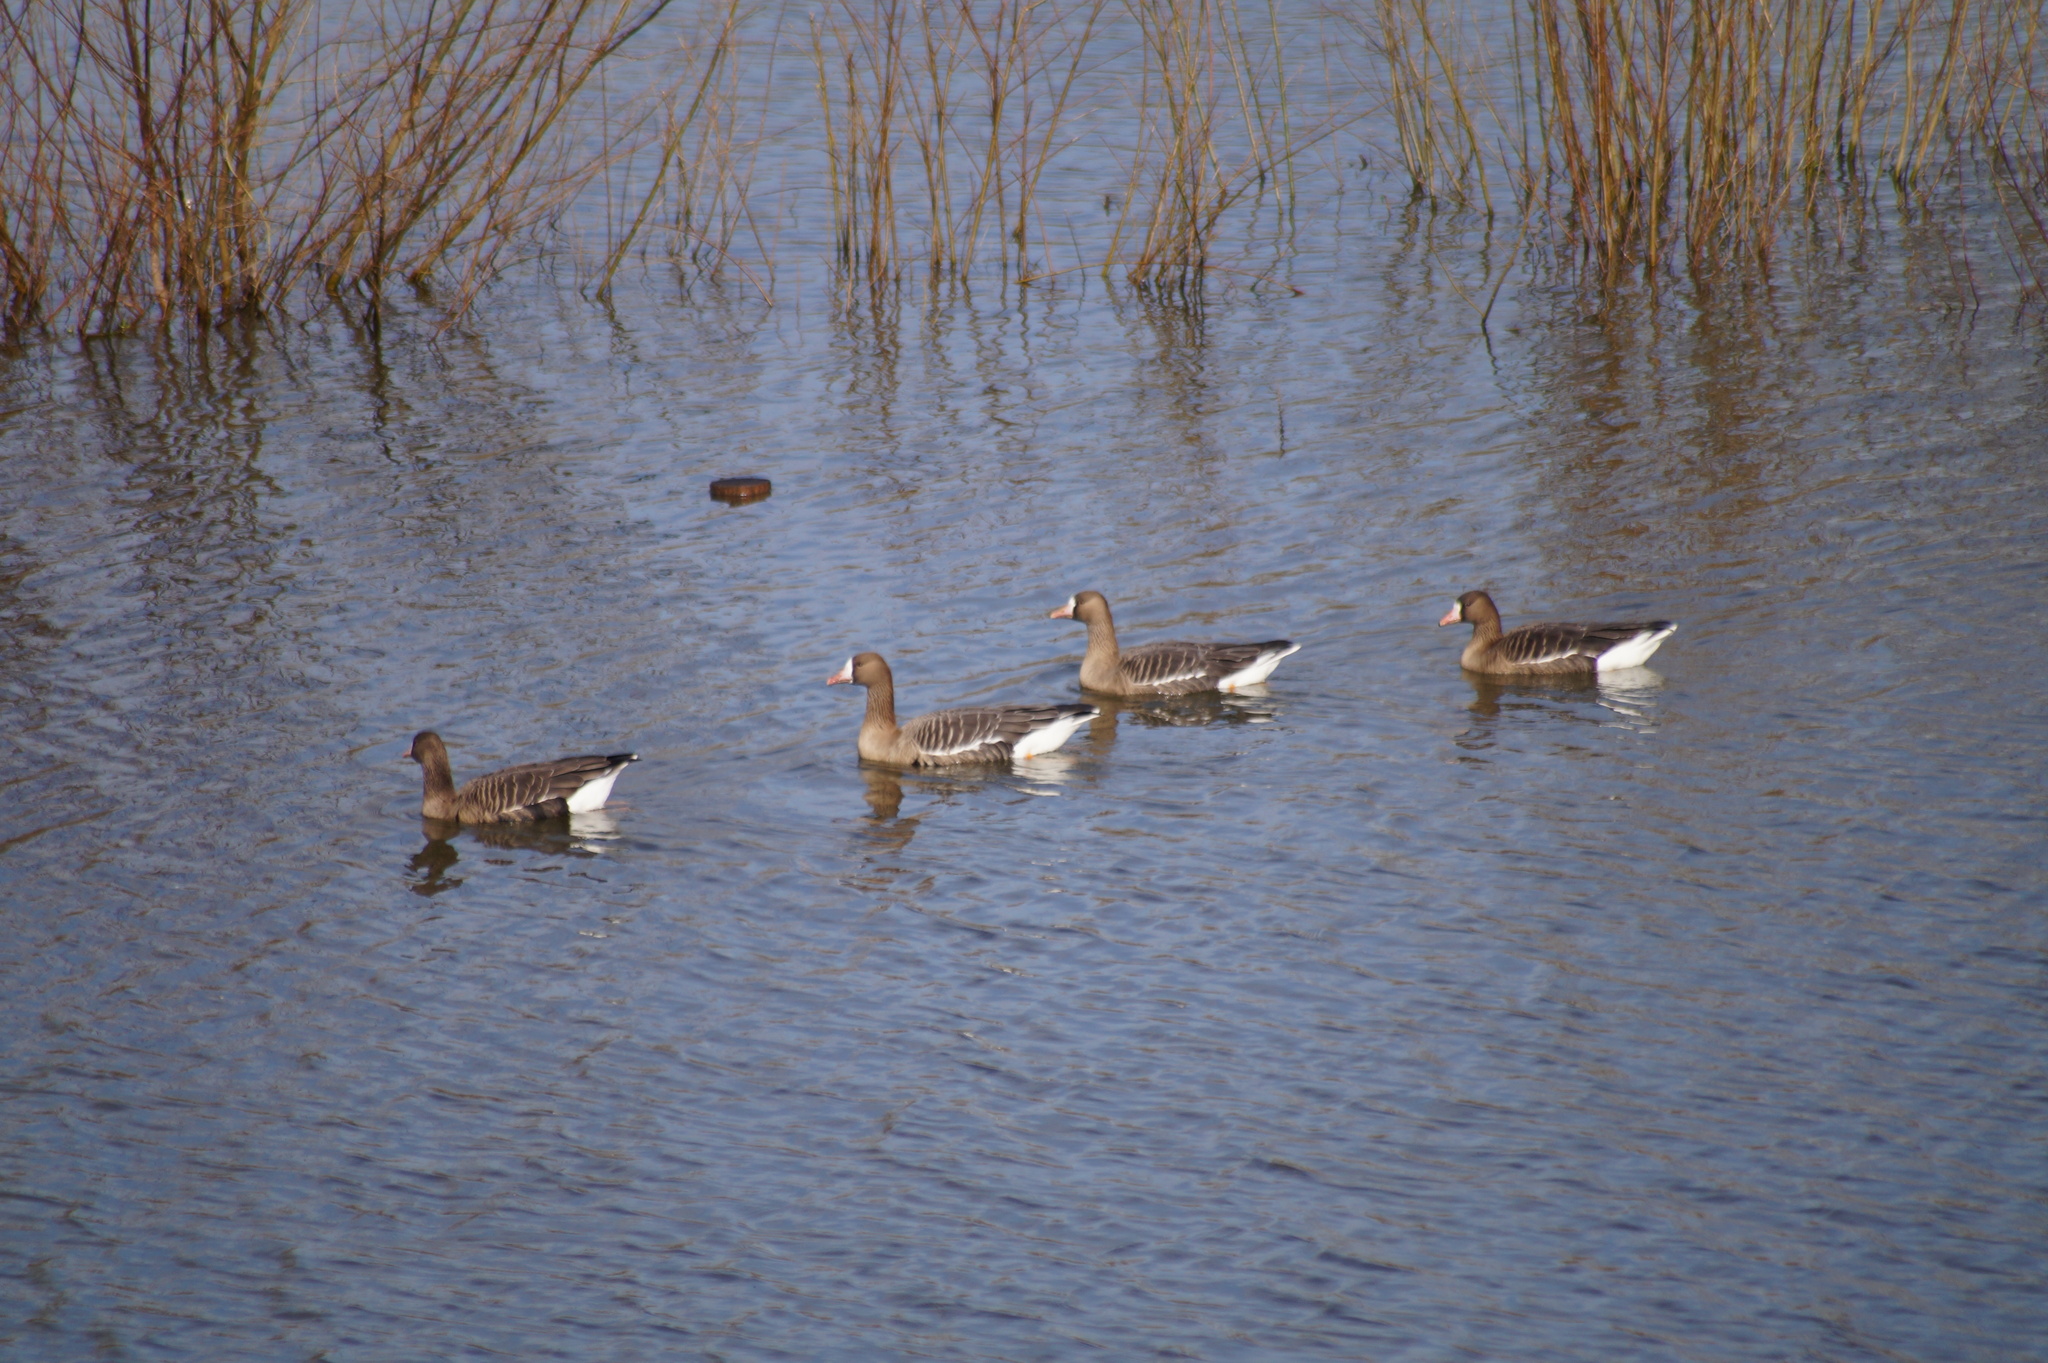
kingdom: Animalia
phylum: Chordata
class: Aves
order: Anseriformes
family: Anatidae
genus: Anser
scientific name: Anser albifrons
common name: Greater white-fronted goose
